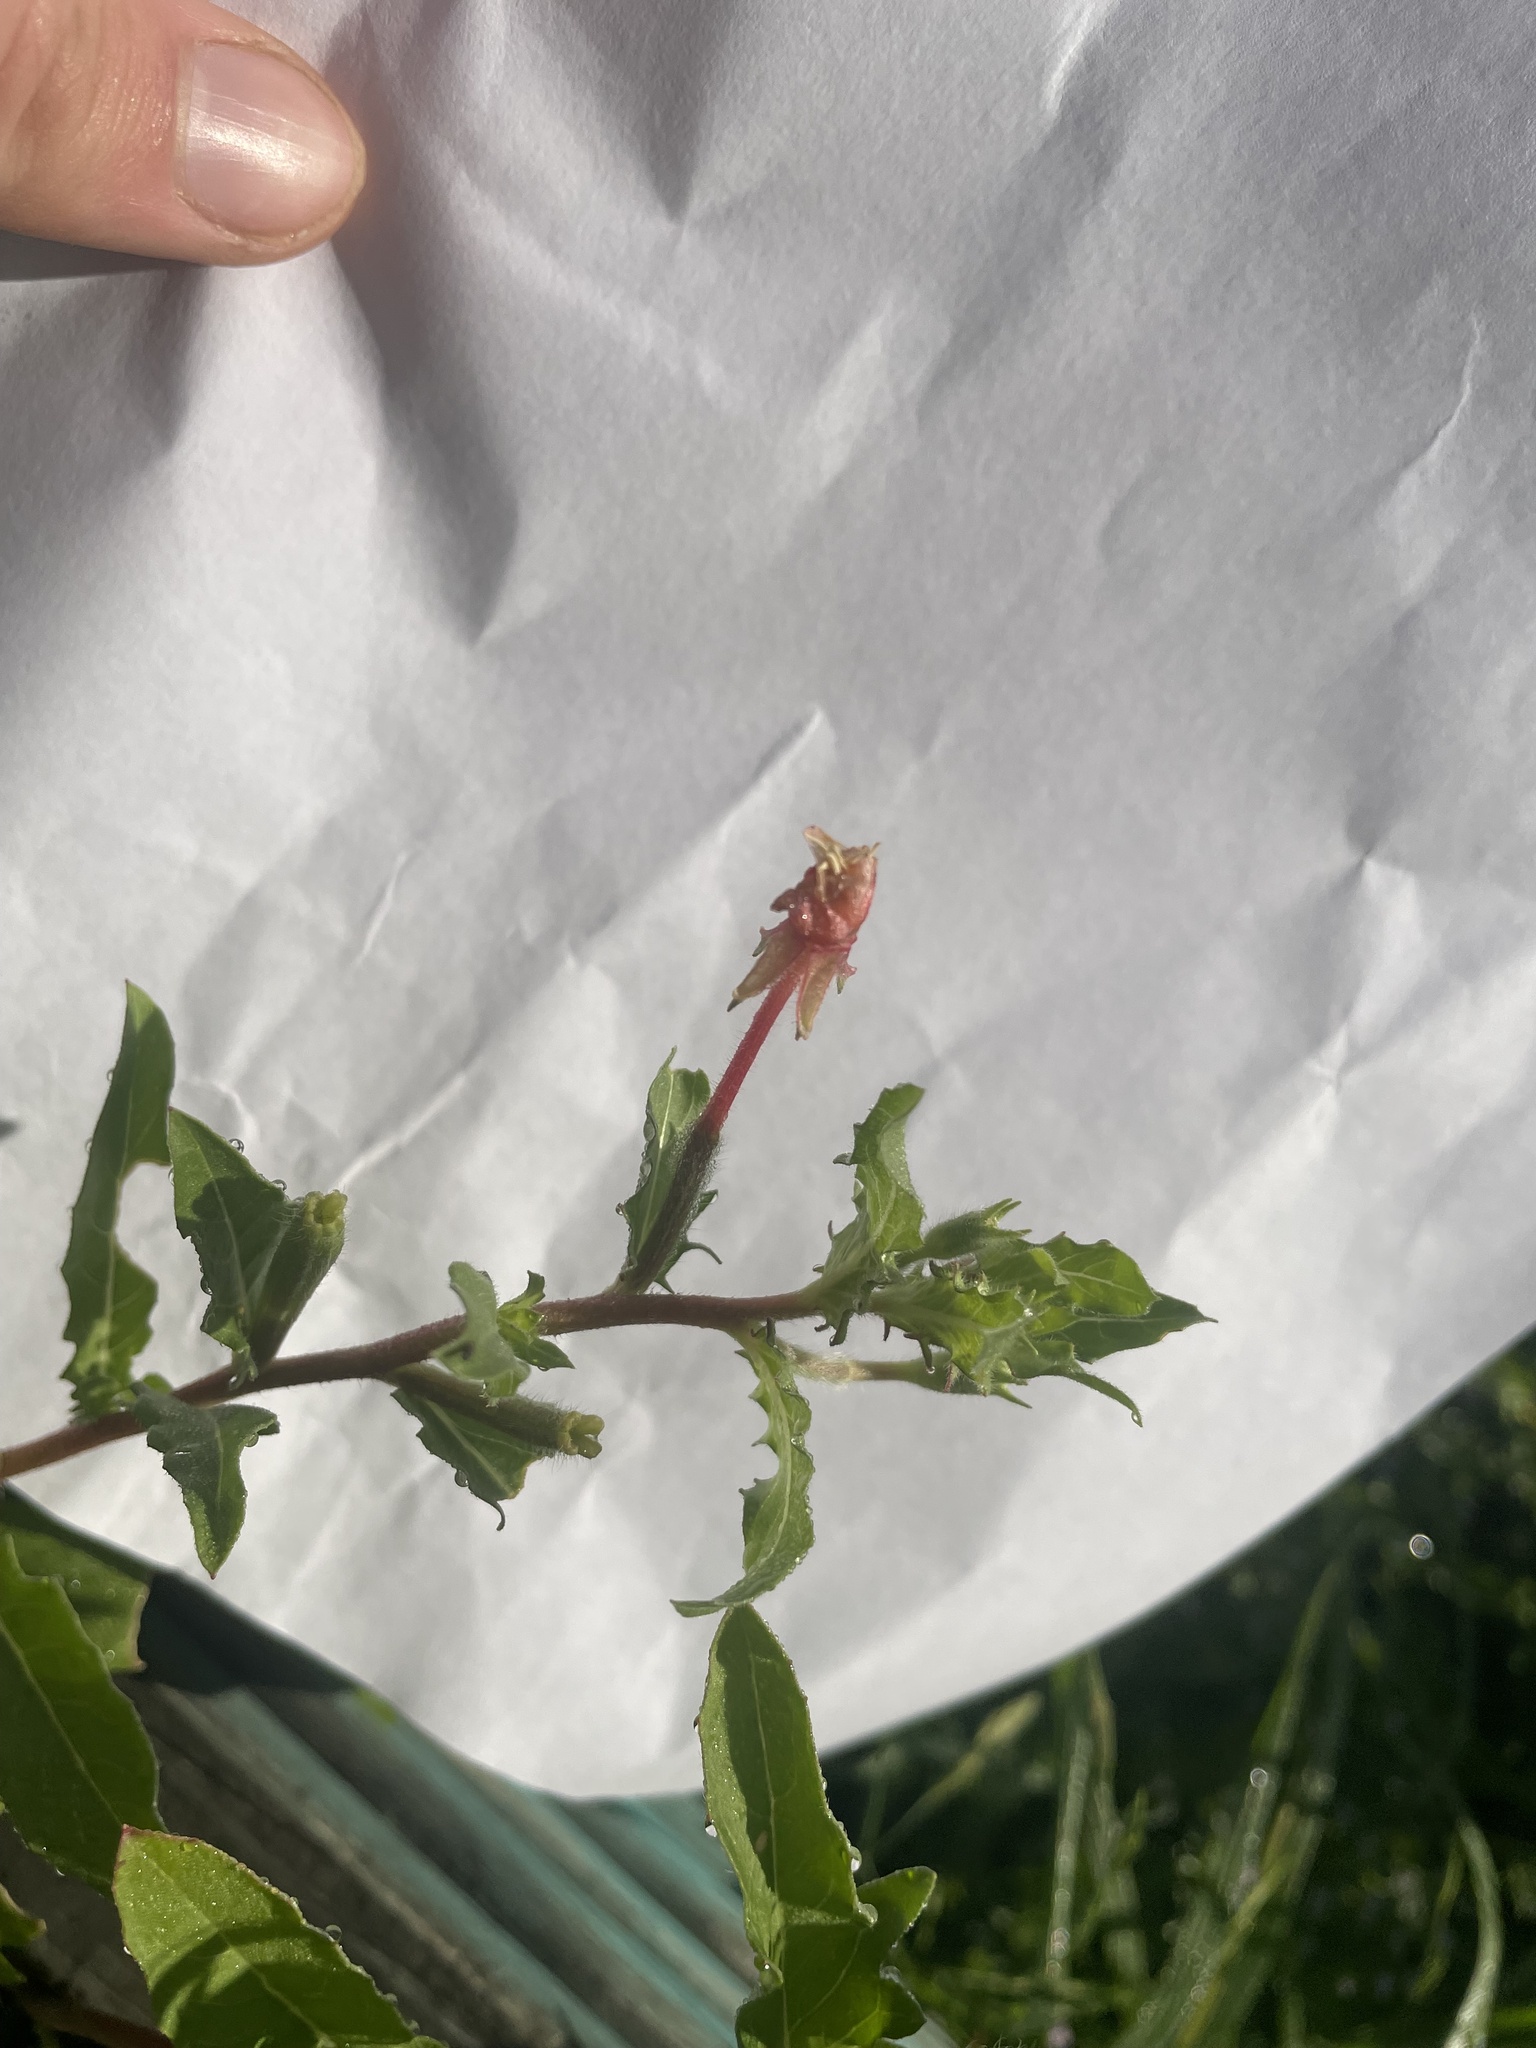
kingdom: Plantae
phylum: Tracheophyta
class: Magnoliopsida
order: Myrtales
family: Onagraceae
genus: Oenothera
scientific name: Oenothera laciniata
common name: Cut-leaved evening-primrose
